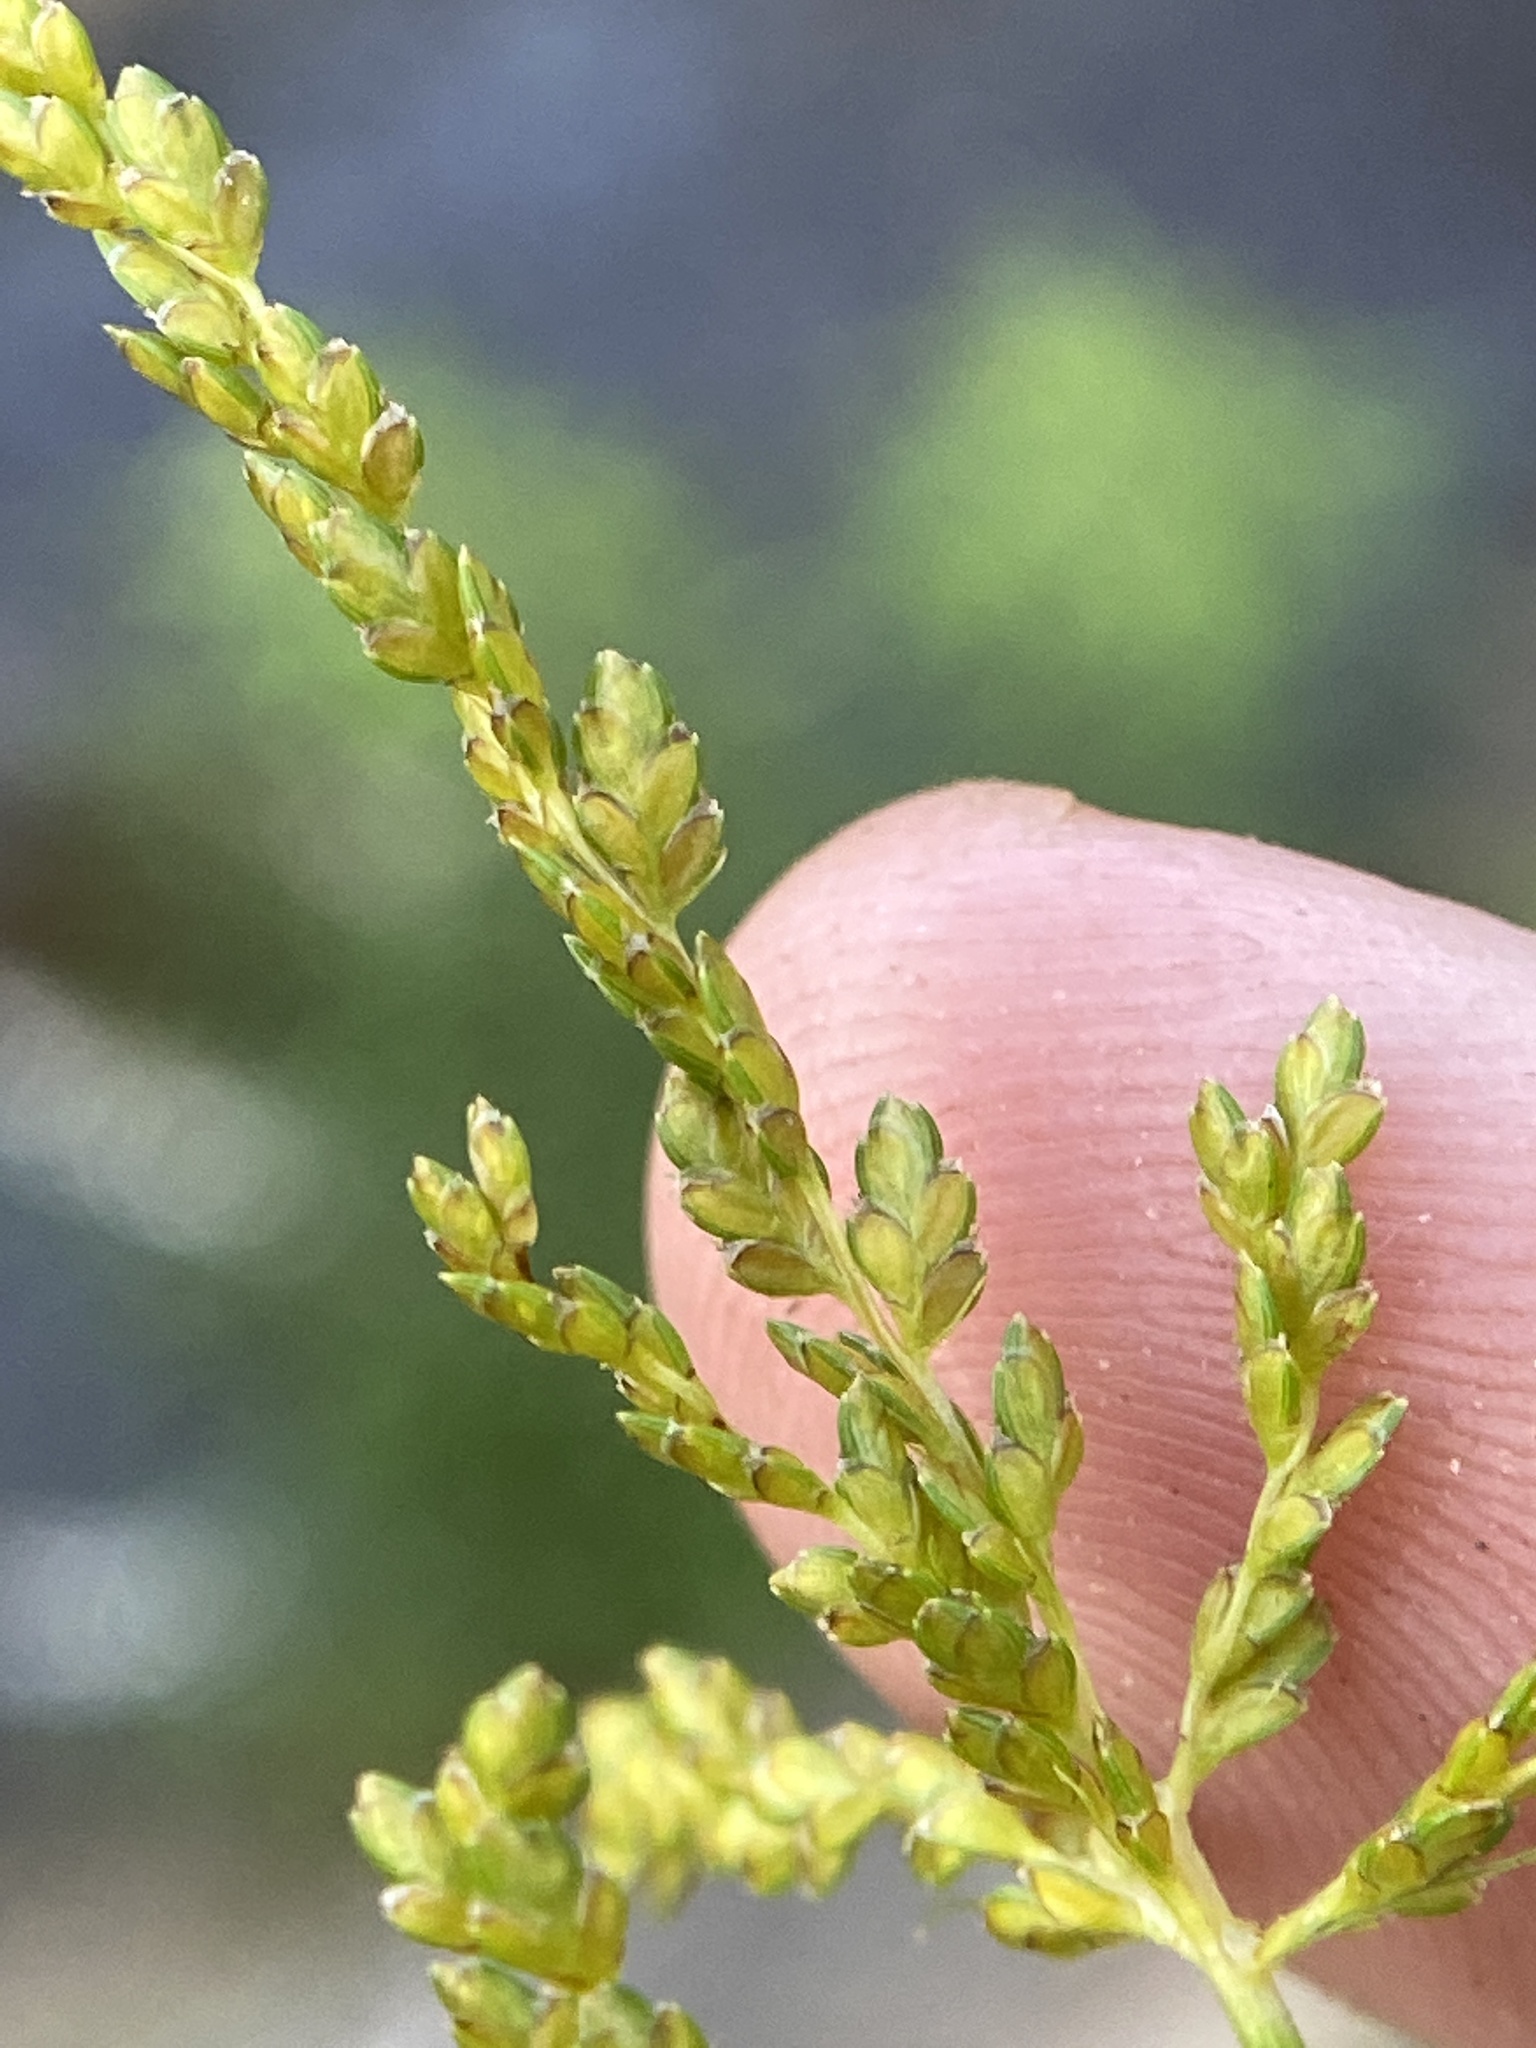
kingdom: Plantae
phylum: Tracheophyta
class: Liliopsida
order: Poales
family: Cyperaceae
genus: Cyperus
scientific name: Cyperus iria
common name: Ricefield flatsedge
